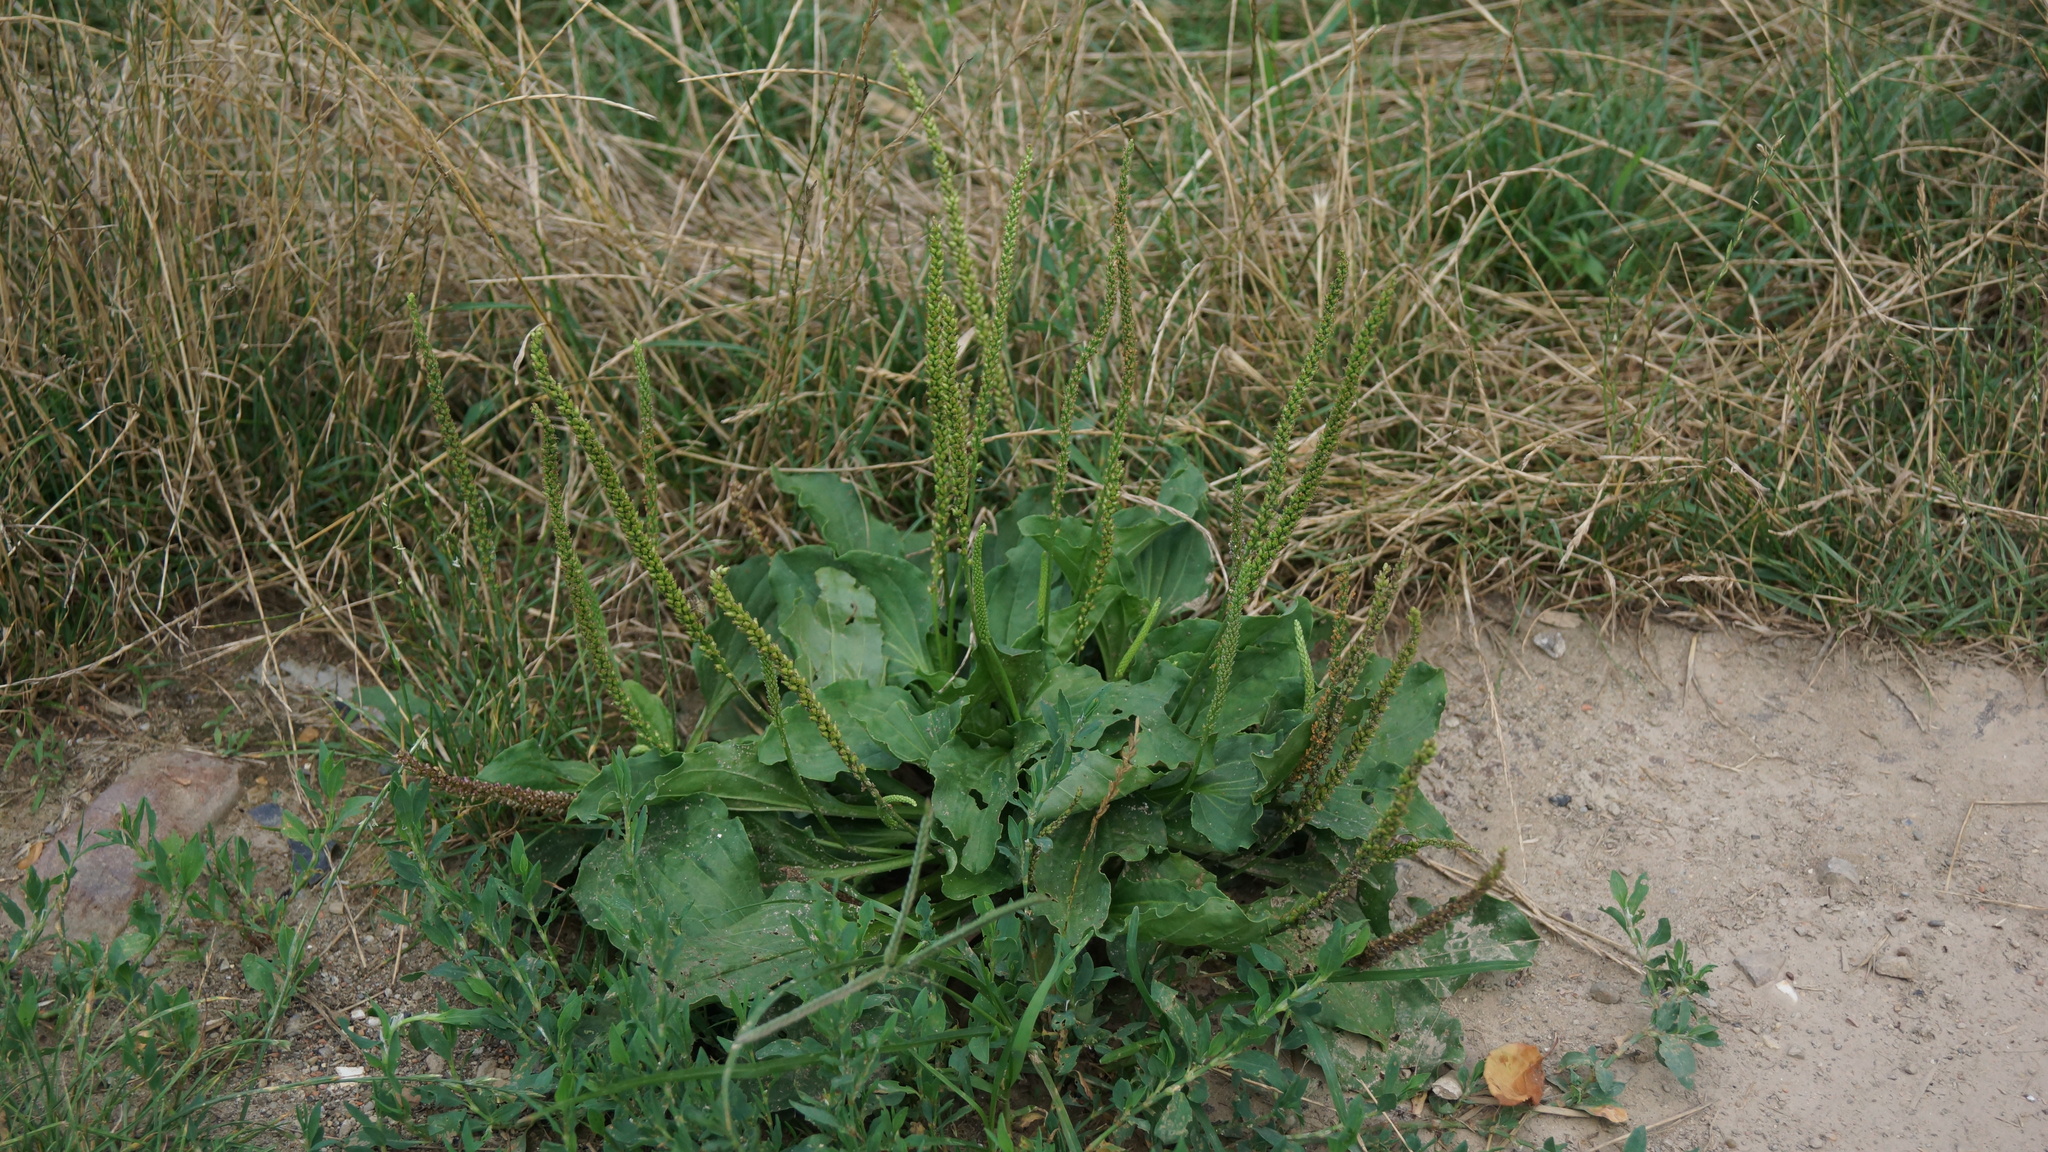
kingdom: Plantae
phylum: Tracheophyta
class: Magnoliopsida
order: Lamiales
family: Plantaginaceae
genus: Plantago
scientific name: Plantago major
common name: Common plantain
